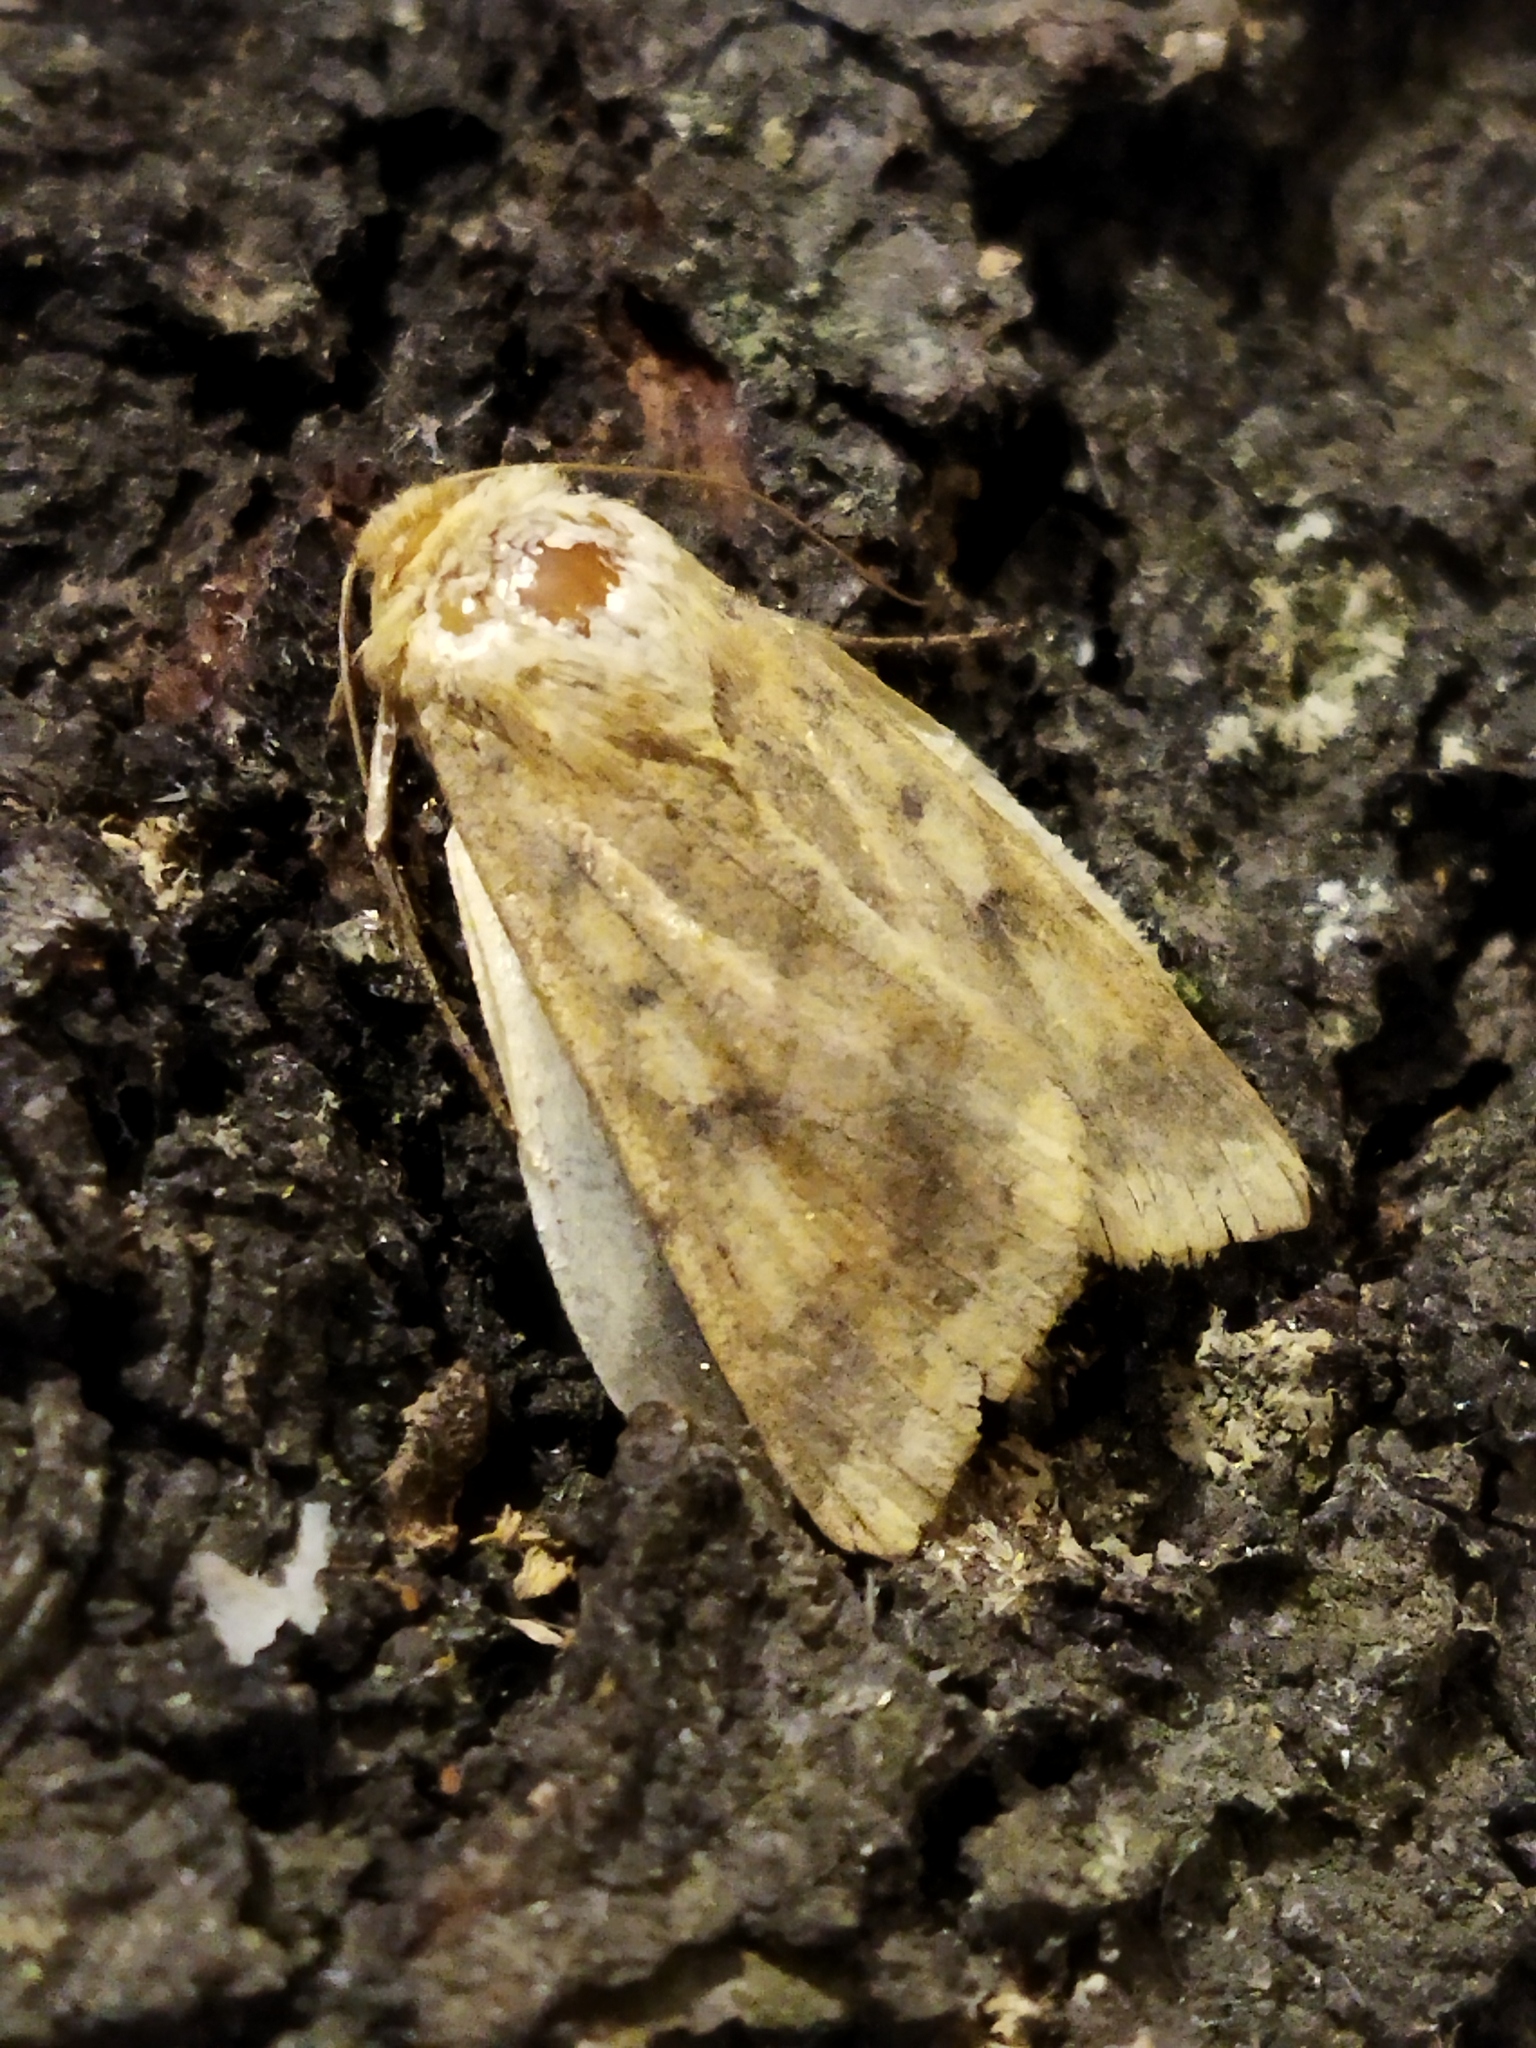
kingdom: Animalia
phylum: Arthropoda
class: Insecta
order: Lepidoptera
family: Noctuidae
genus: Helicoverpa
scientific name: Helicoverpa armigera
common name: Cotton bollworm
